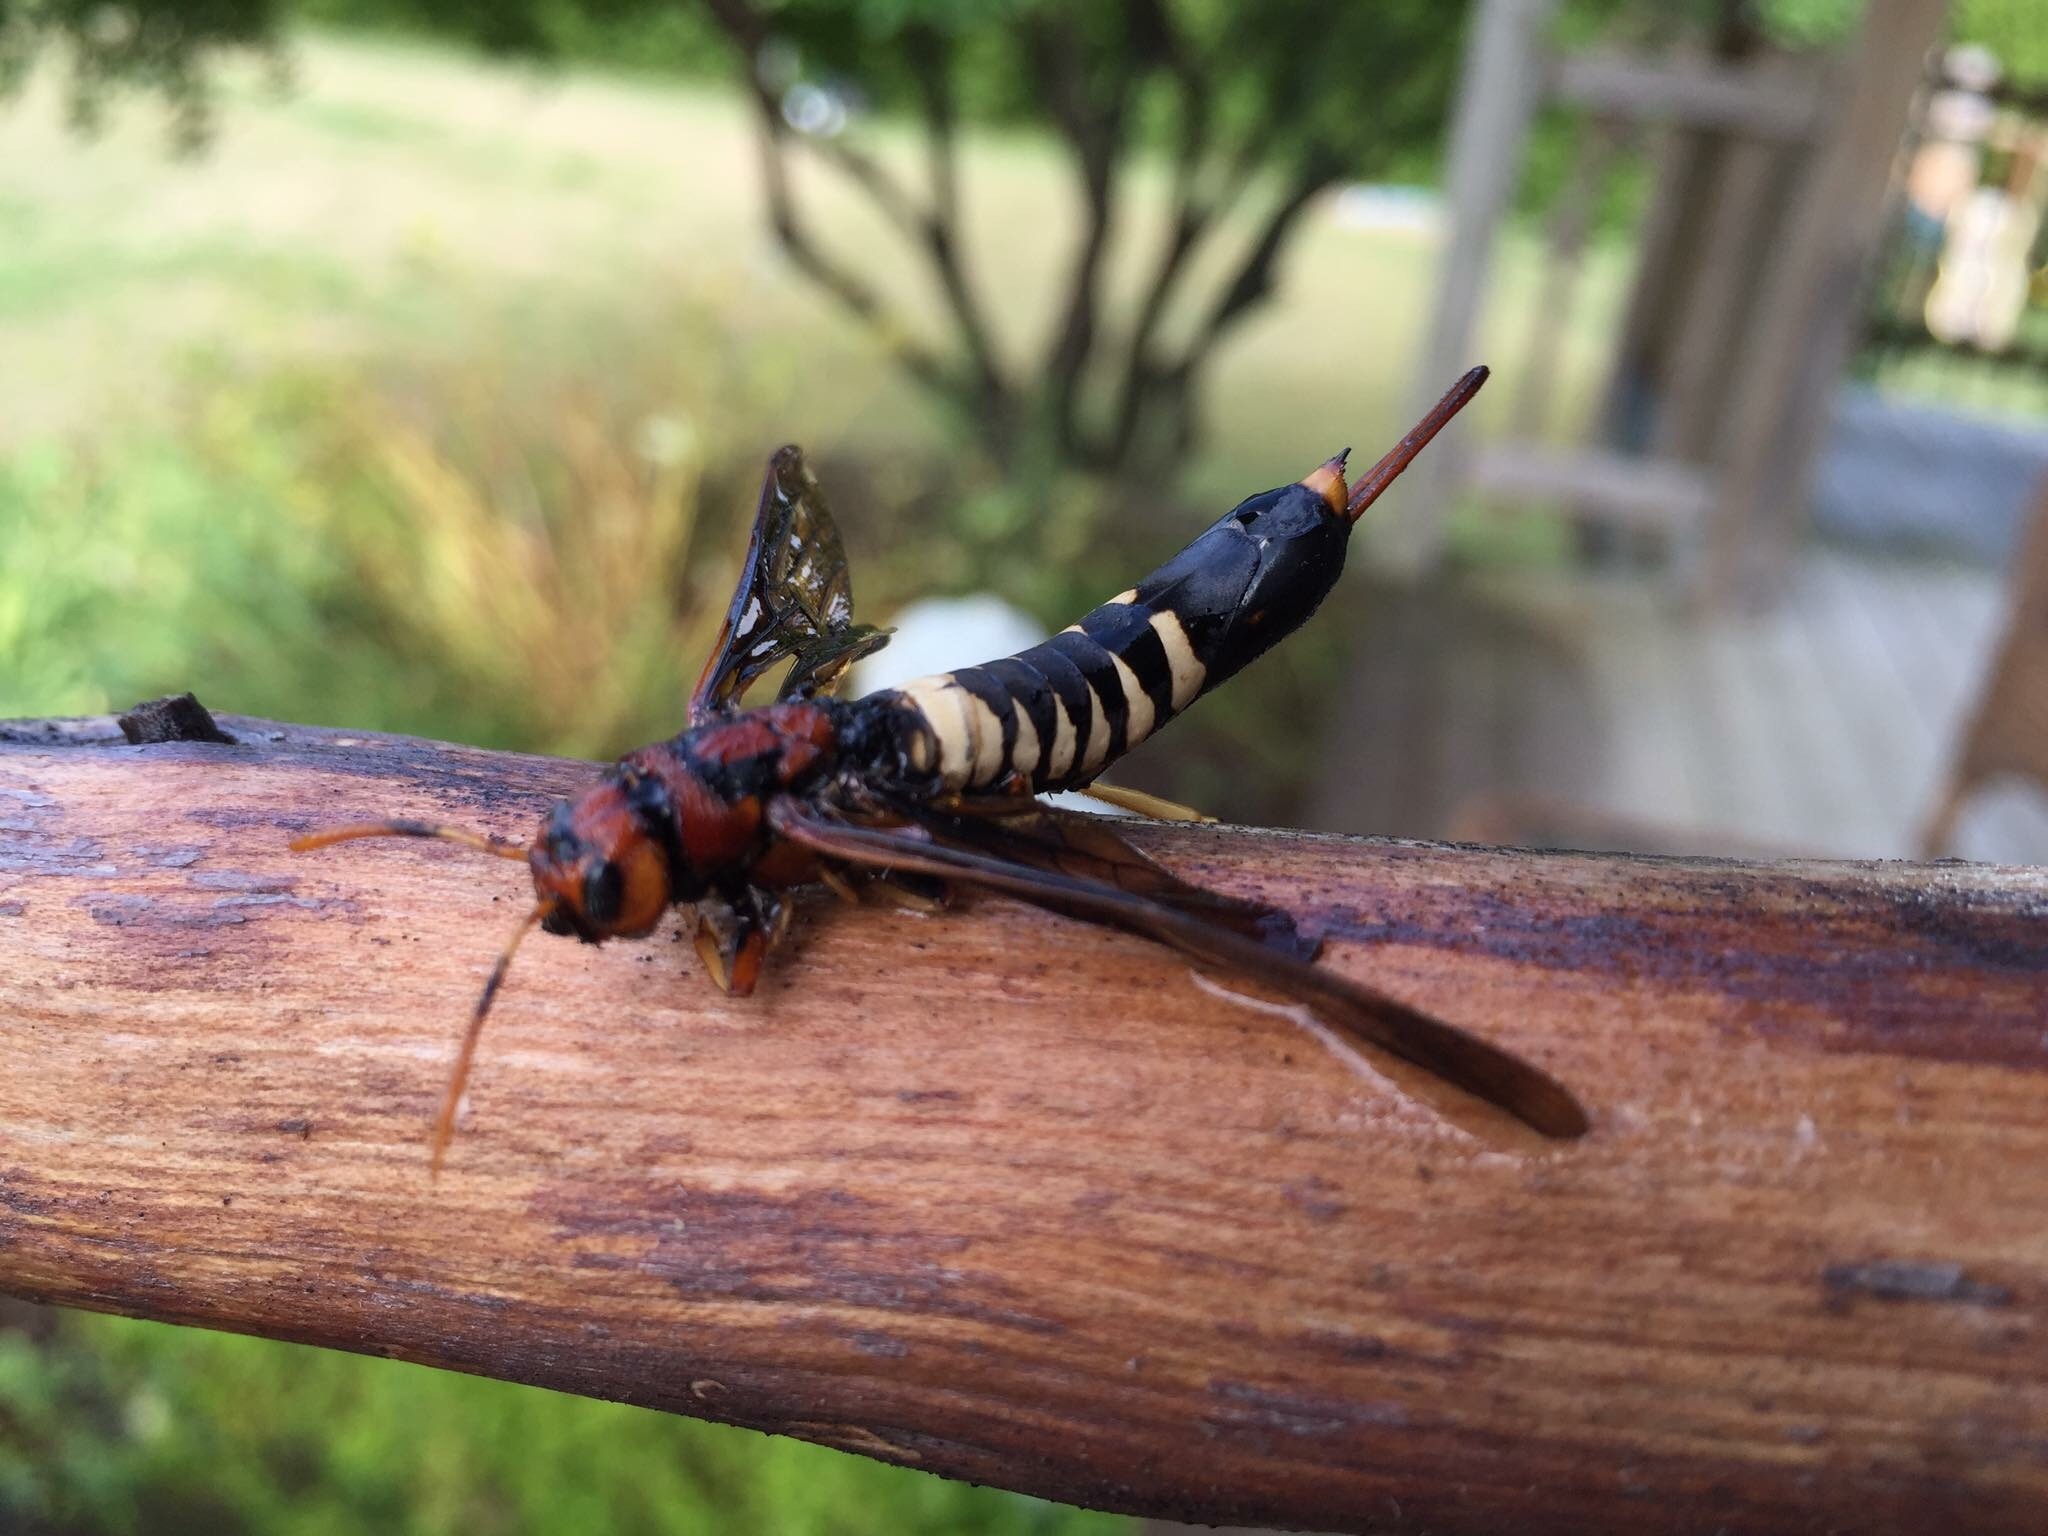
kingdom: Animalia
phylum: Arthropoda
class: Insecta
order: Hymenoptera
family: Siricidae
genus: Tremex
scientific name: Tremex columba
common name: Wasp
